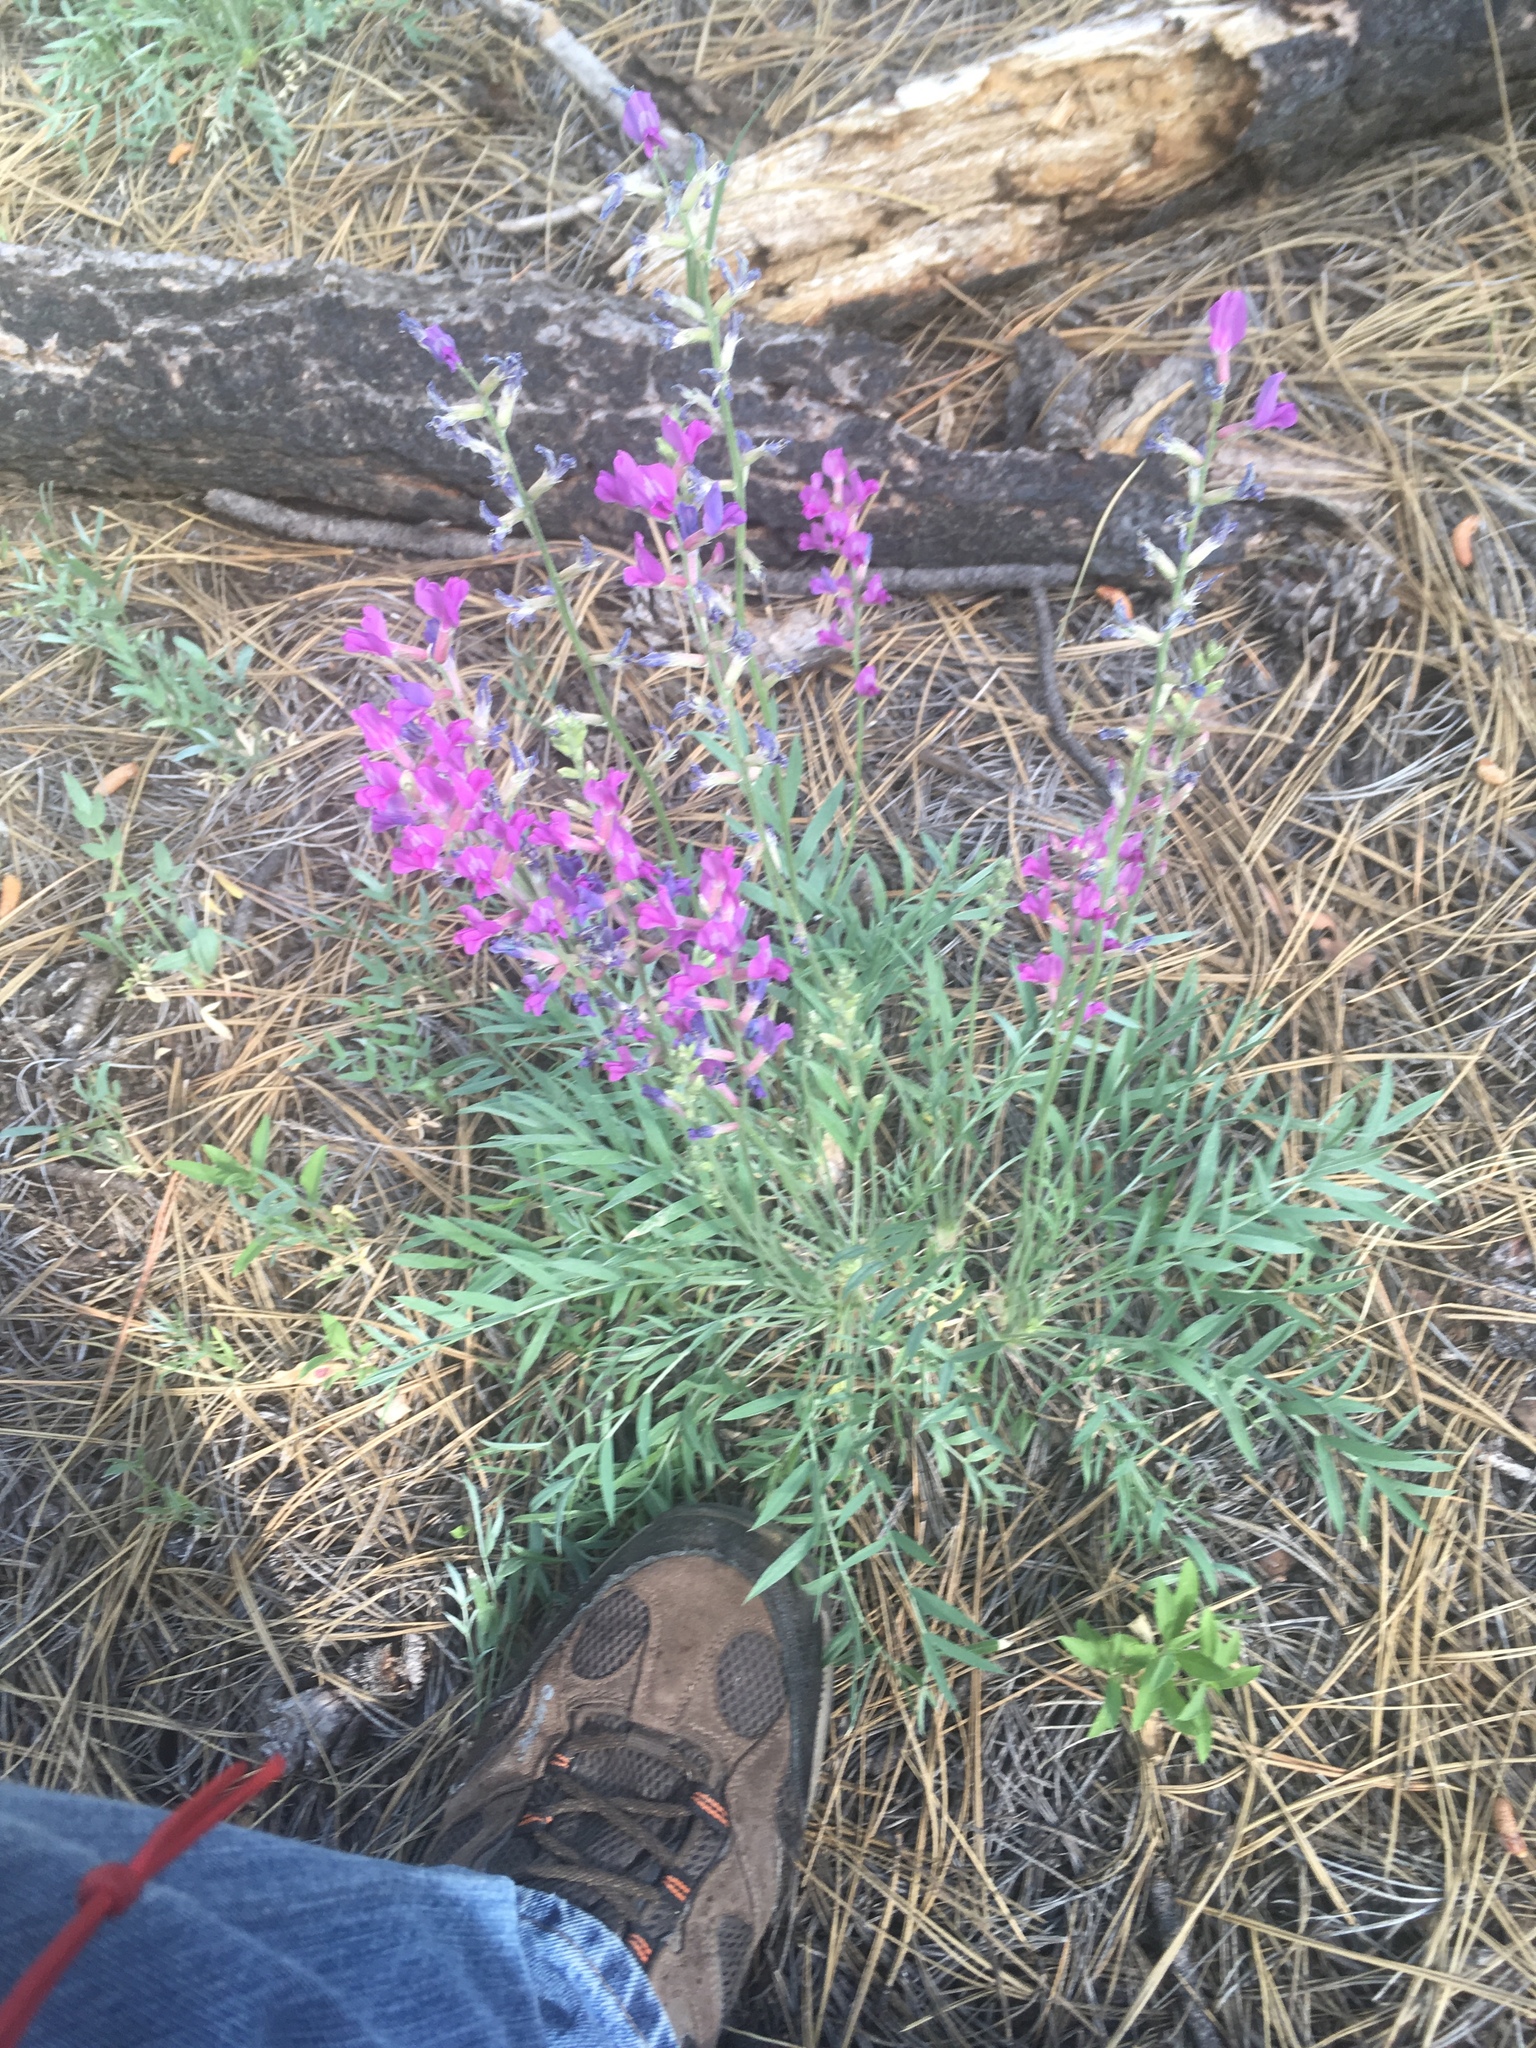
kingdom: Plantae
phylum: Tracheophyta
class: Magnoliopsida
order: Fabales
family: Fabaceae
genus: Oxytropis
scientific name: Oxytropis lambertii
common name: Purple locoweed
